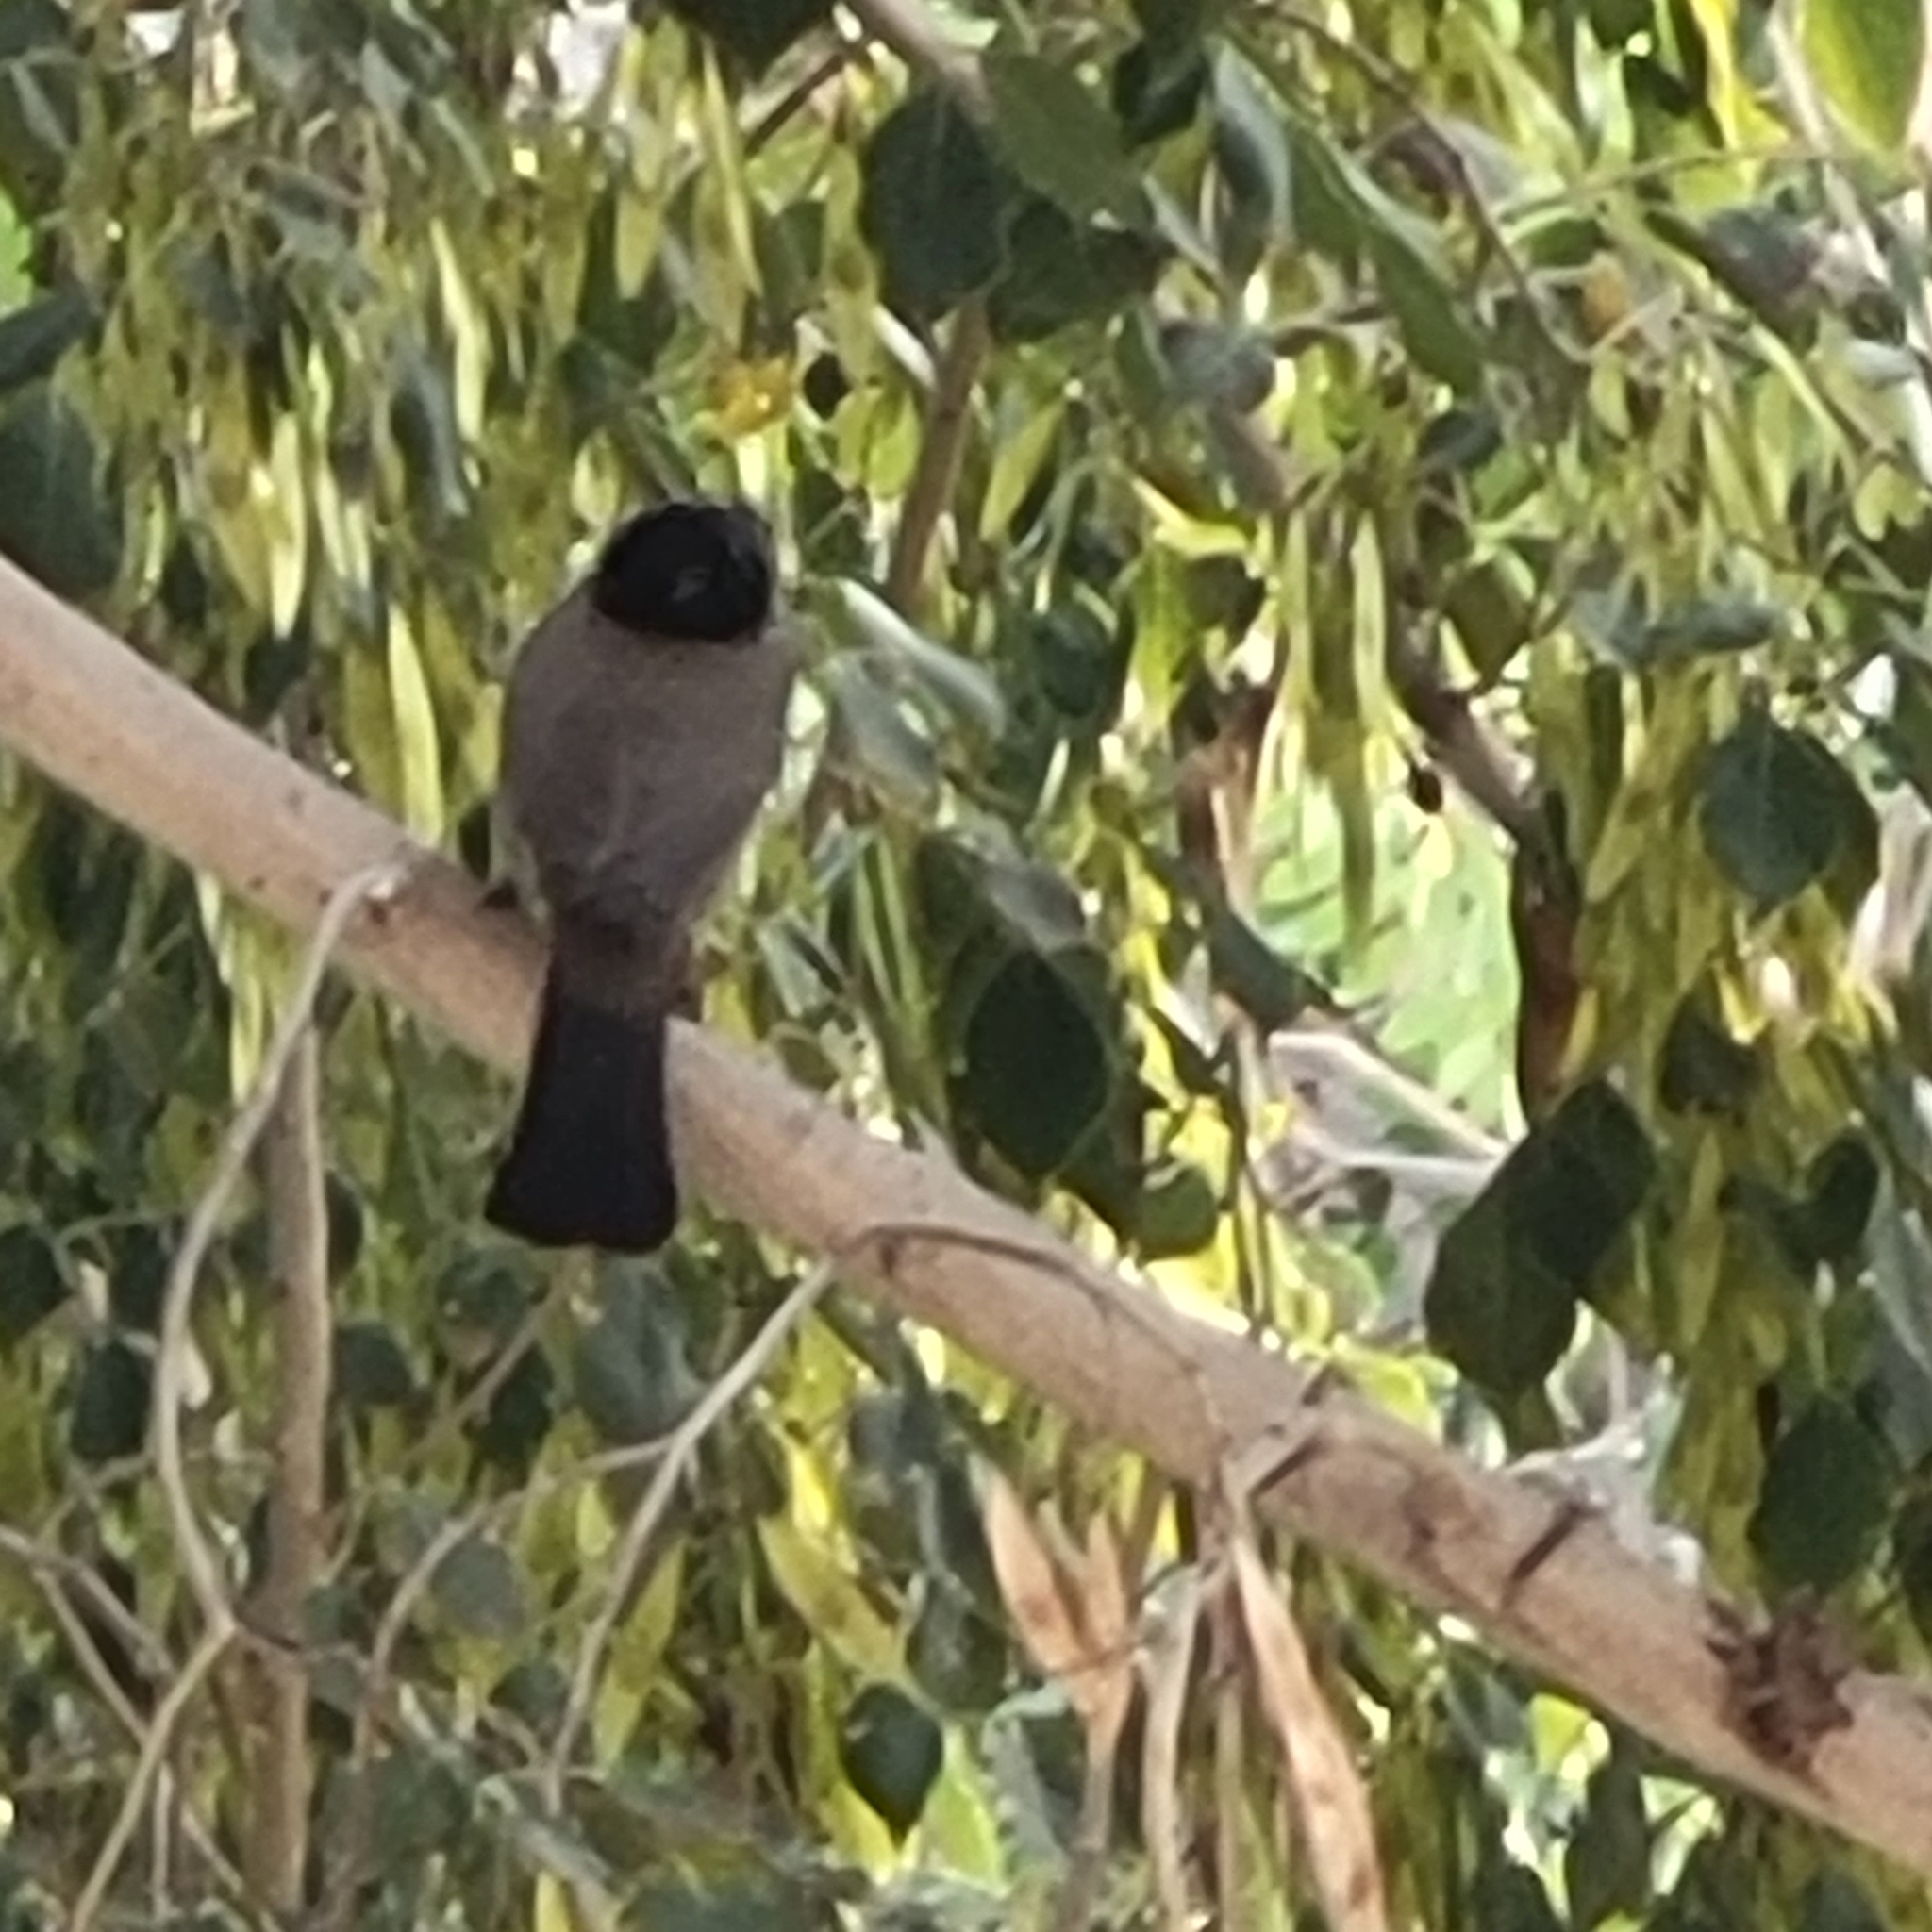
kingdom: Animalia
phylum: Chordata
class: Aves
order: Passeriformes
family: Pycnonotidae
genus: Pycnonotus
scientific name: Pycnonotus xanthopygos
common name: White-spectacled bulbul
